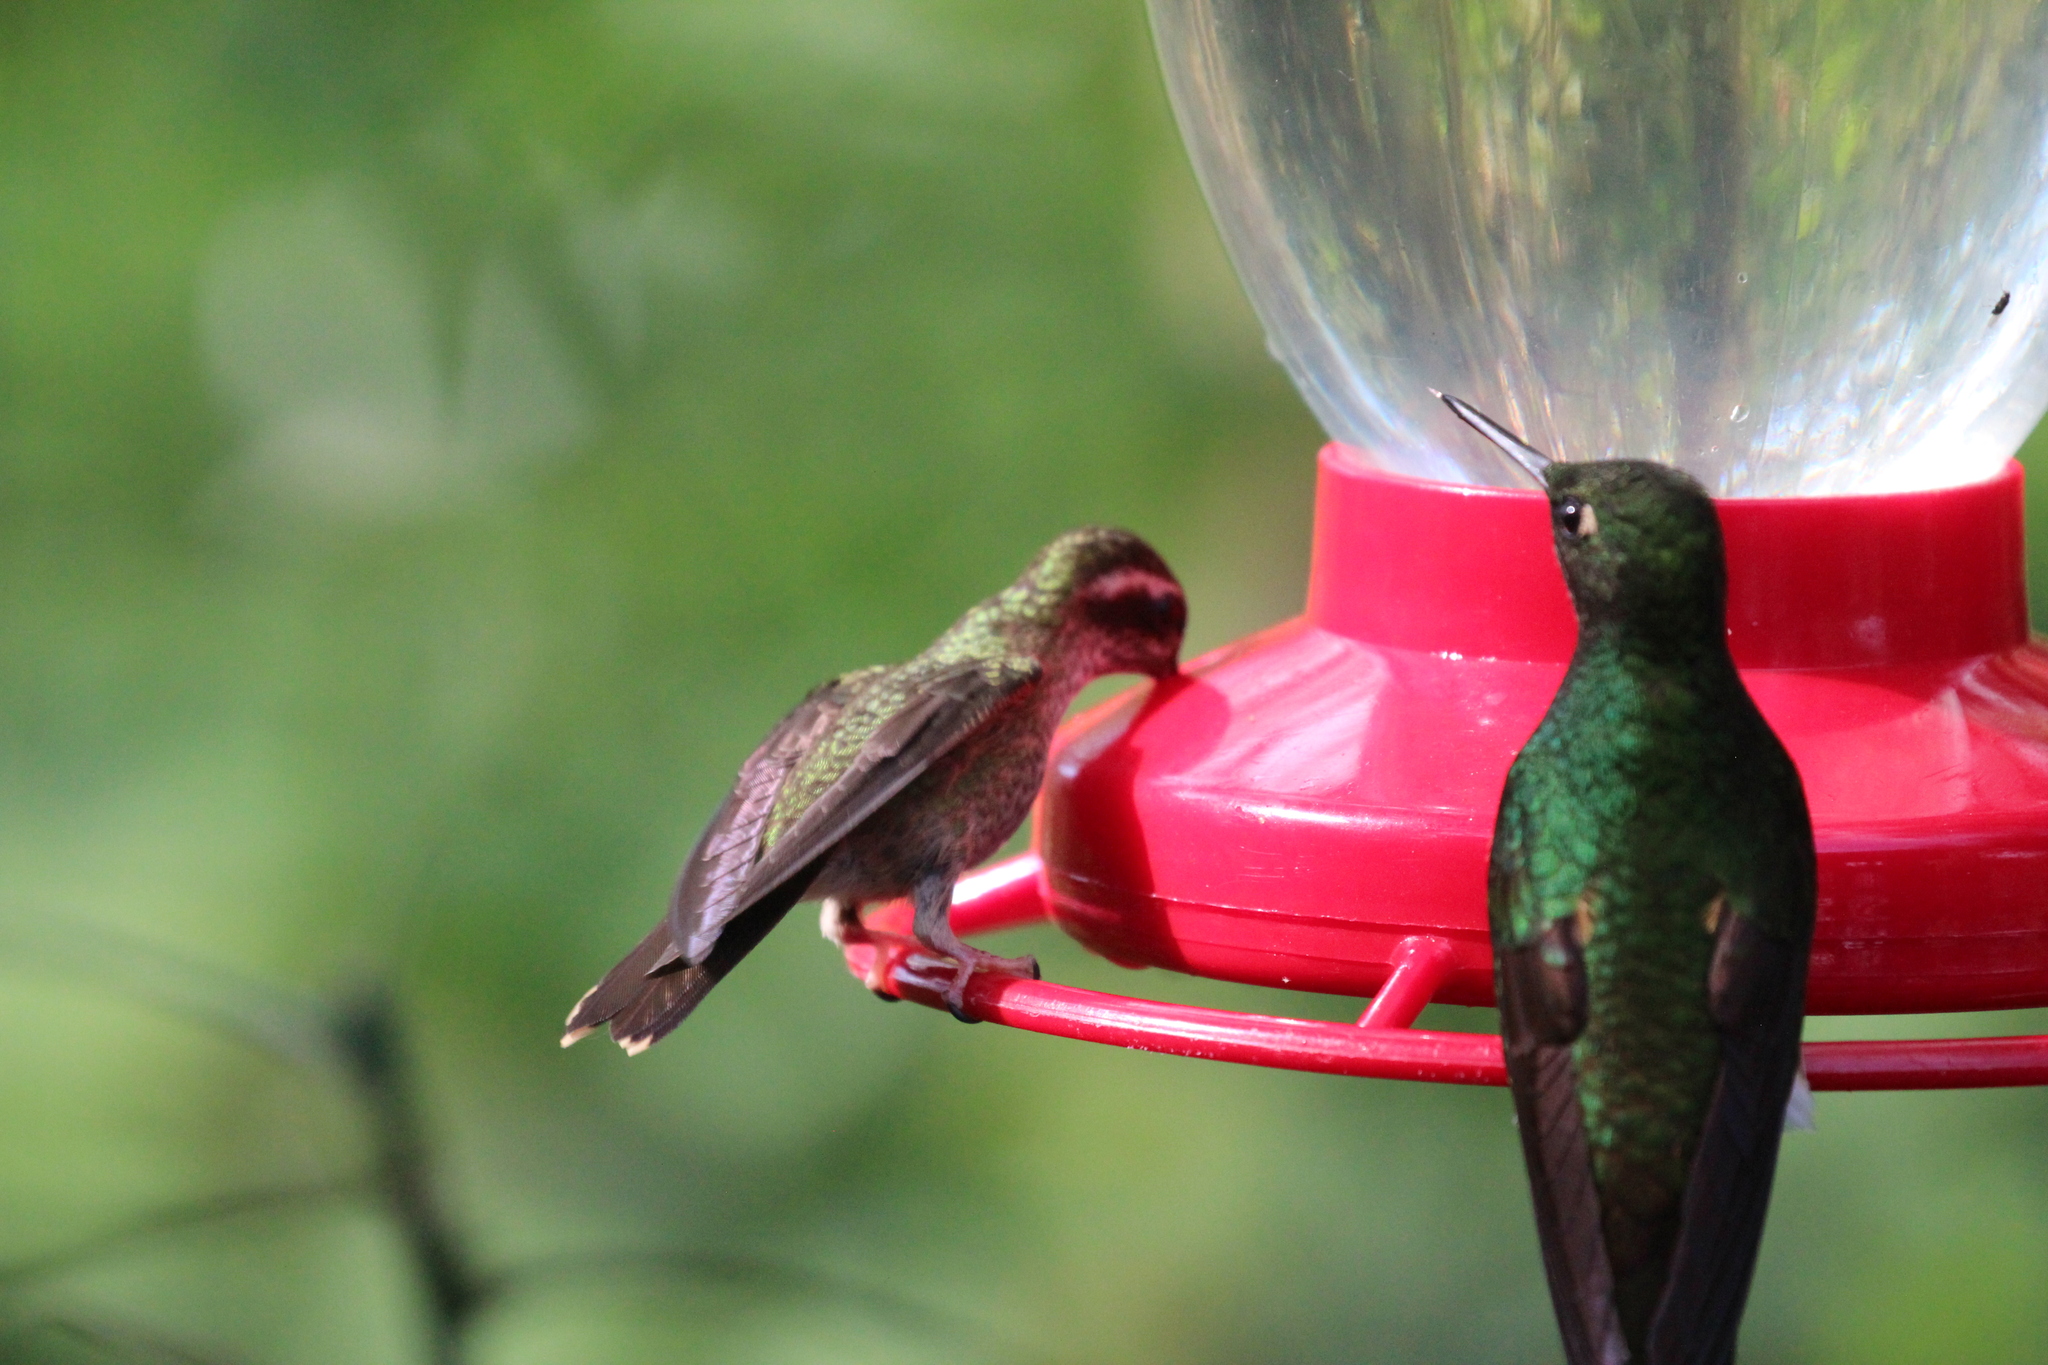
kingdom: Animalia
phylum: Chordata
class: Aves
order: Apodiformes
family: Trochilidae
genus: Adelomyia
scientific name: Adelomyia melanogenys
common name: Speckled hummingbird
